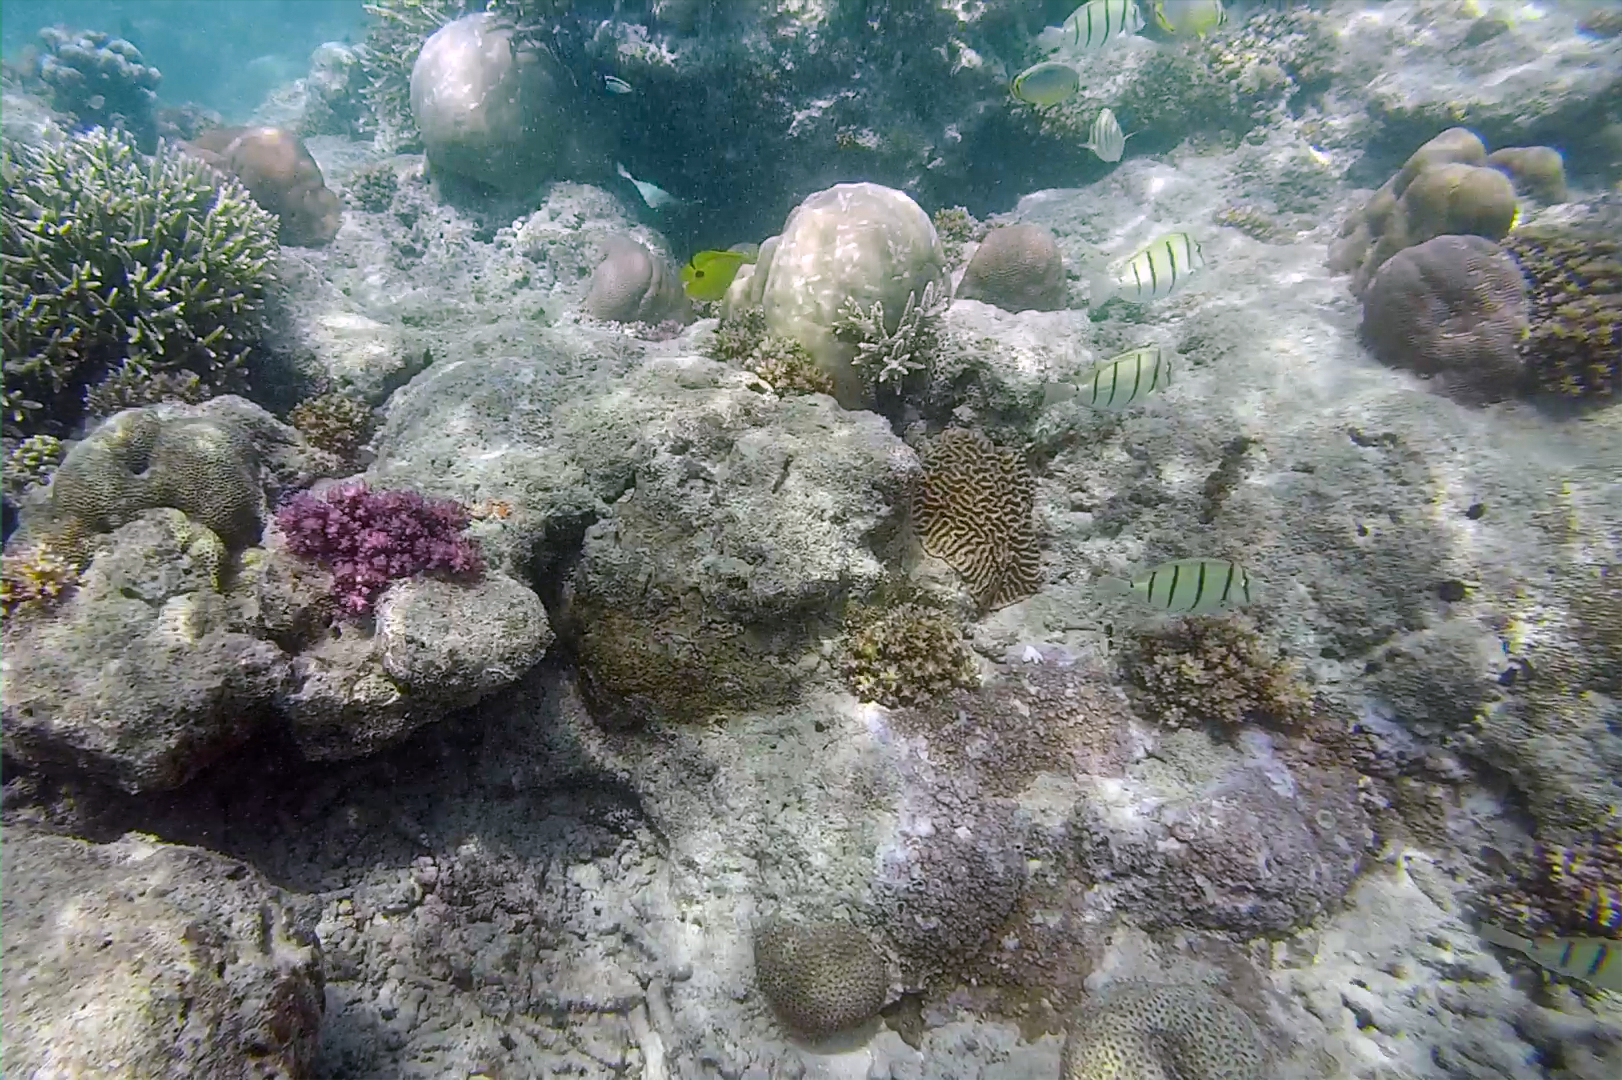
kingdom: Animalia
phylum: Chordata
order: Perciformes
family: Acanthuridae
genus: Acanthurus
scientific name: Acanthurus triostegus
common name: Convict surgeonfish
